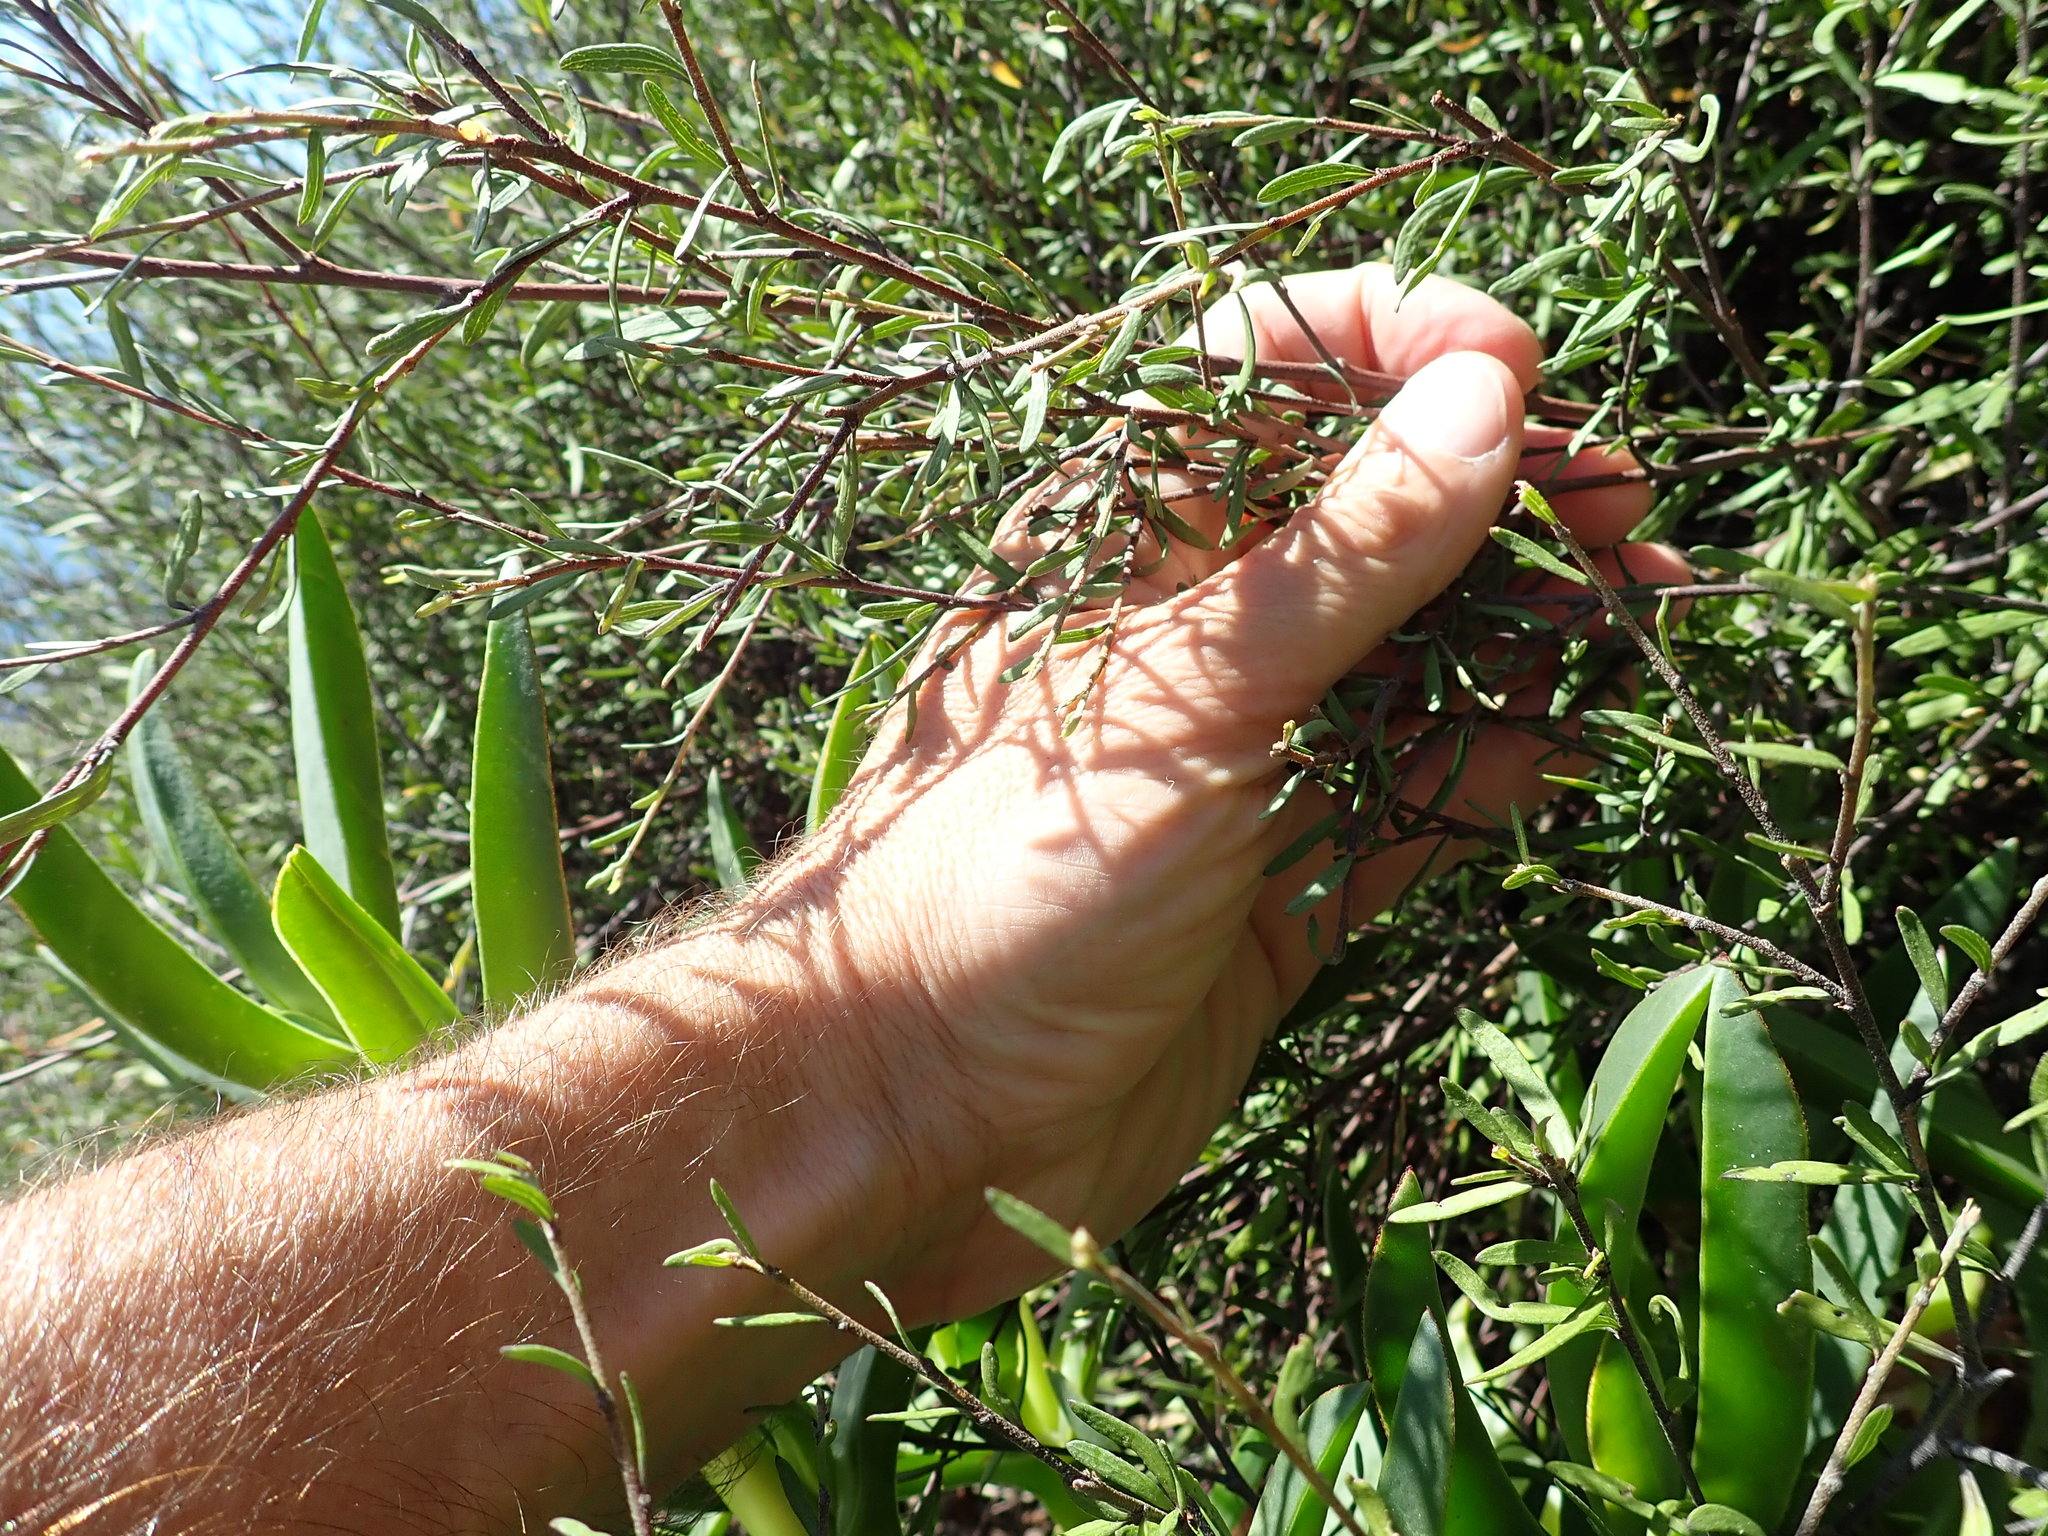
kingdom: Plantae
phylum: Tracheophyta
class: Magnoliopsida
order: Malvales
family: Malvaceae
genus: Plagianthus
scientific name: Plagianthus divaricatus
